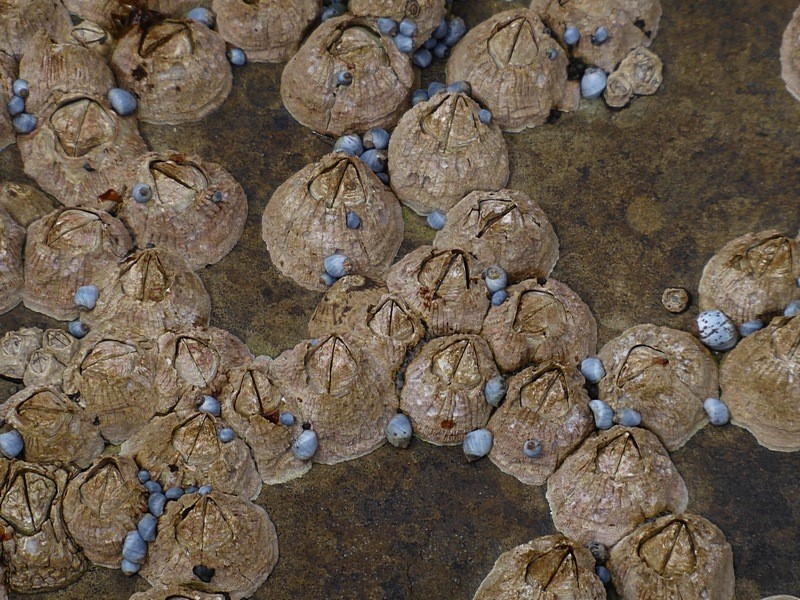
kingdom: Animalia
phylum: Arthropoda
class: Maxillopoda
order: Sessilia
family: Tetraclitidae
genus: Tesseropora
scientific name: Tesseropora rosea
